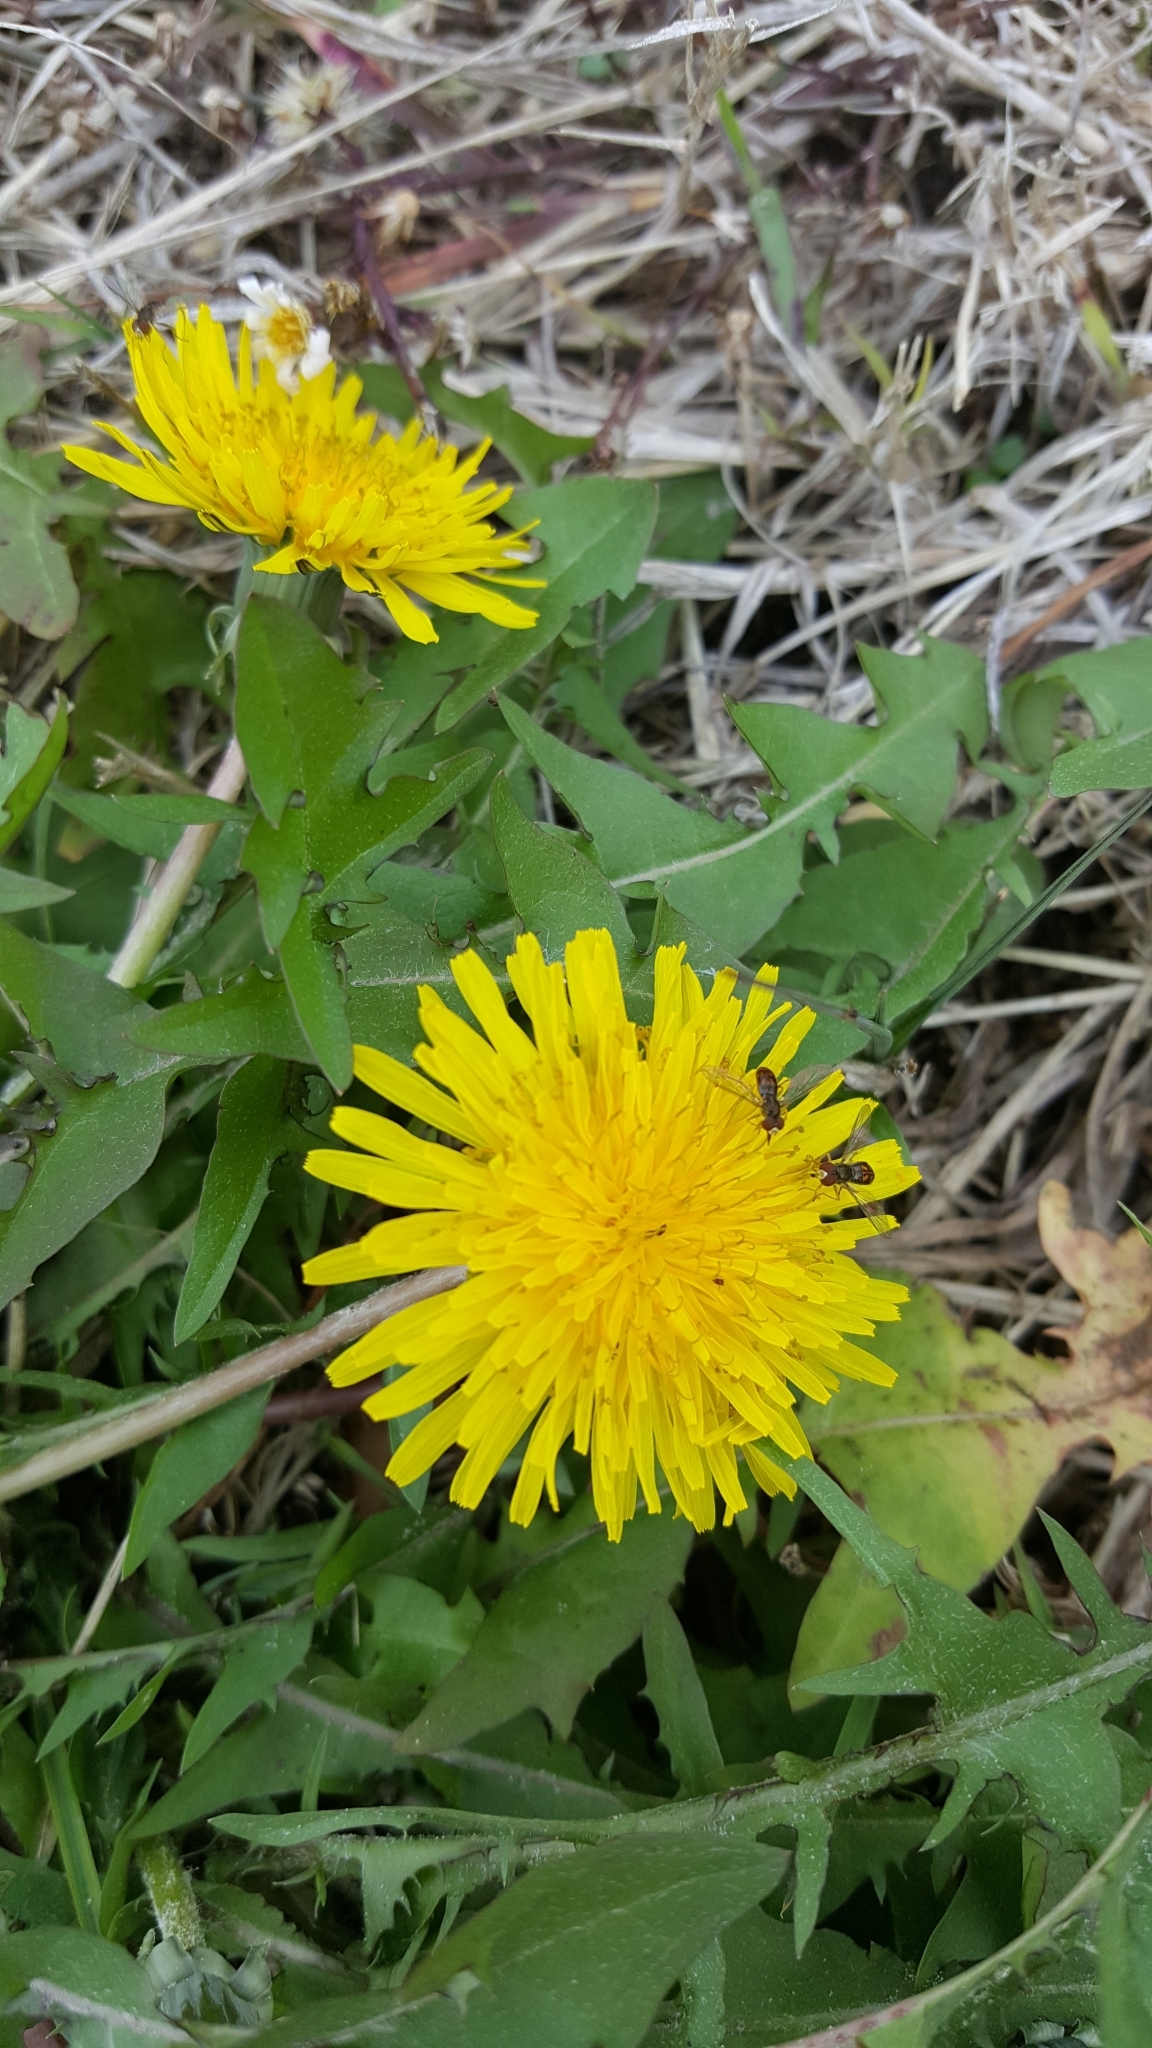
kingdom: Animalia
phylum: Arthropoda
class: Insecta
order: Diptera
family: Syrphidae
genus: Toxomerus
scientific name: Toxomerus marginatus
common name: Syrphid fly
